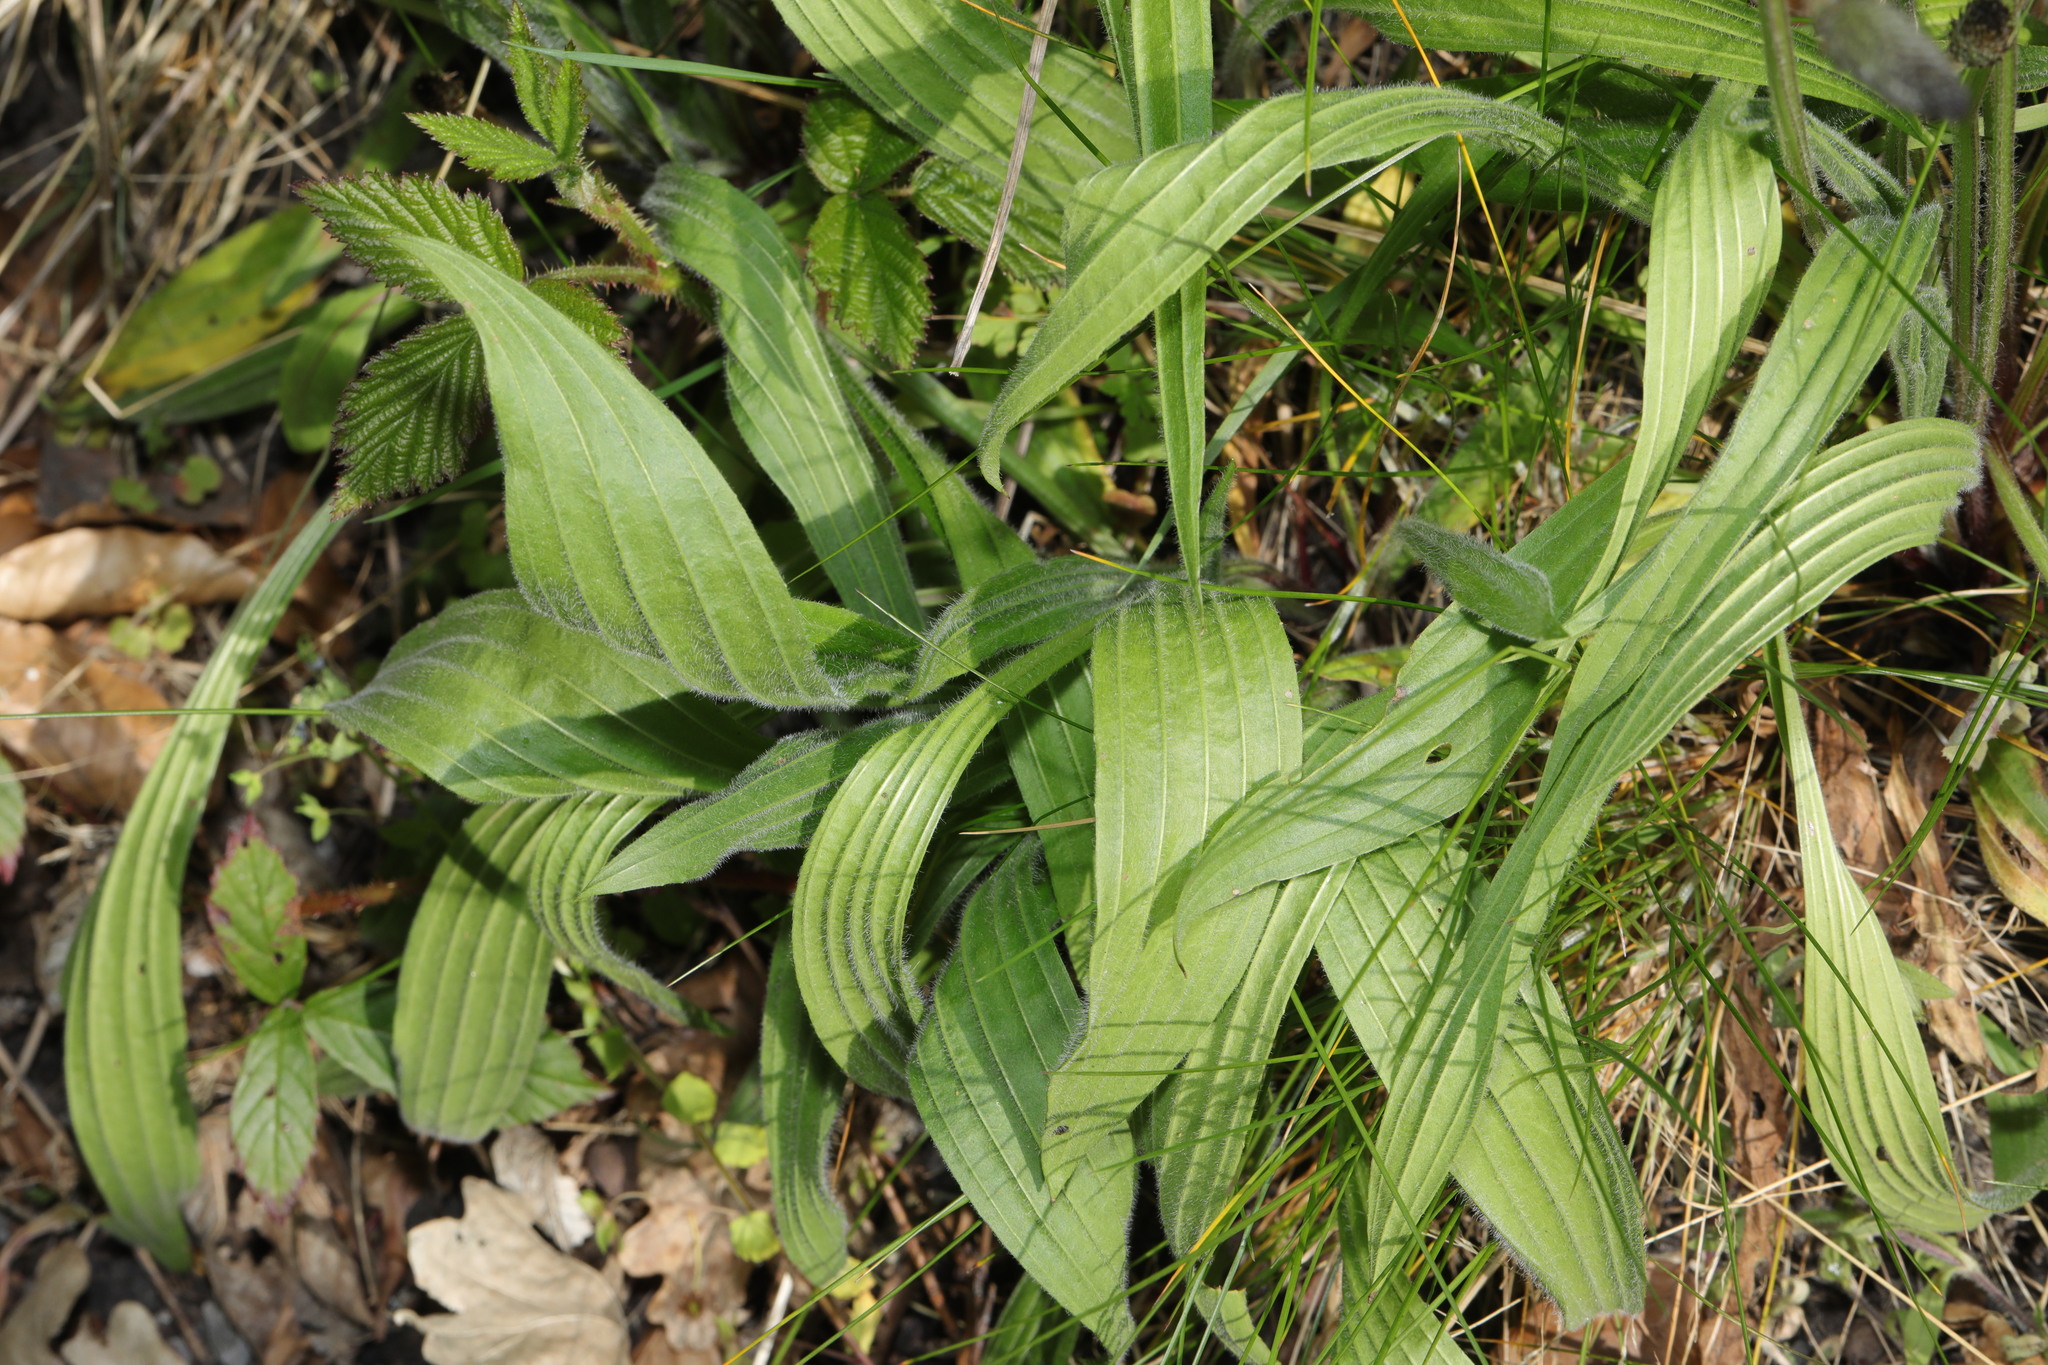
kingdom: Plantae
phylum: Tracheophyta
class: Magnoliopsida
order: Lamiales
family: Plantaginaceae
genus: Plantago
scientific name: Plantago lanceolata
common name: Ribwort plantain
